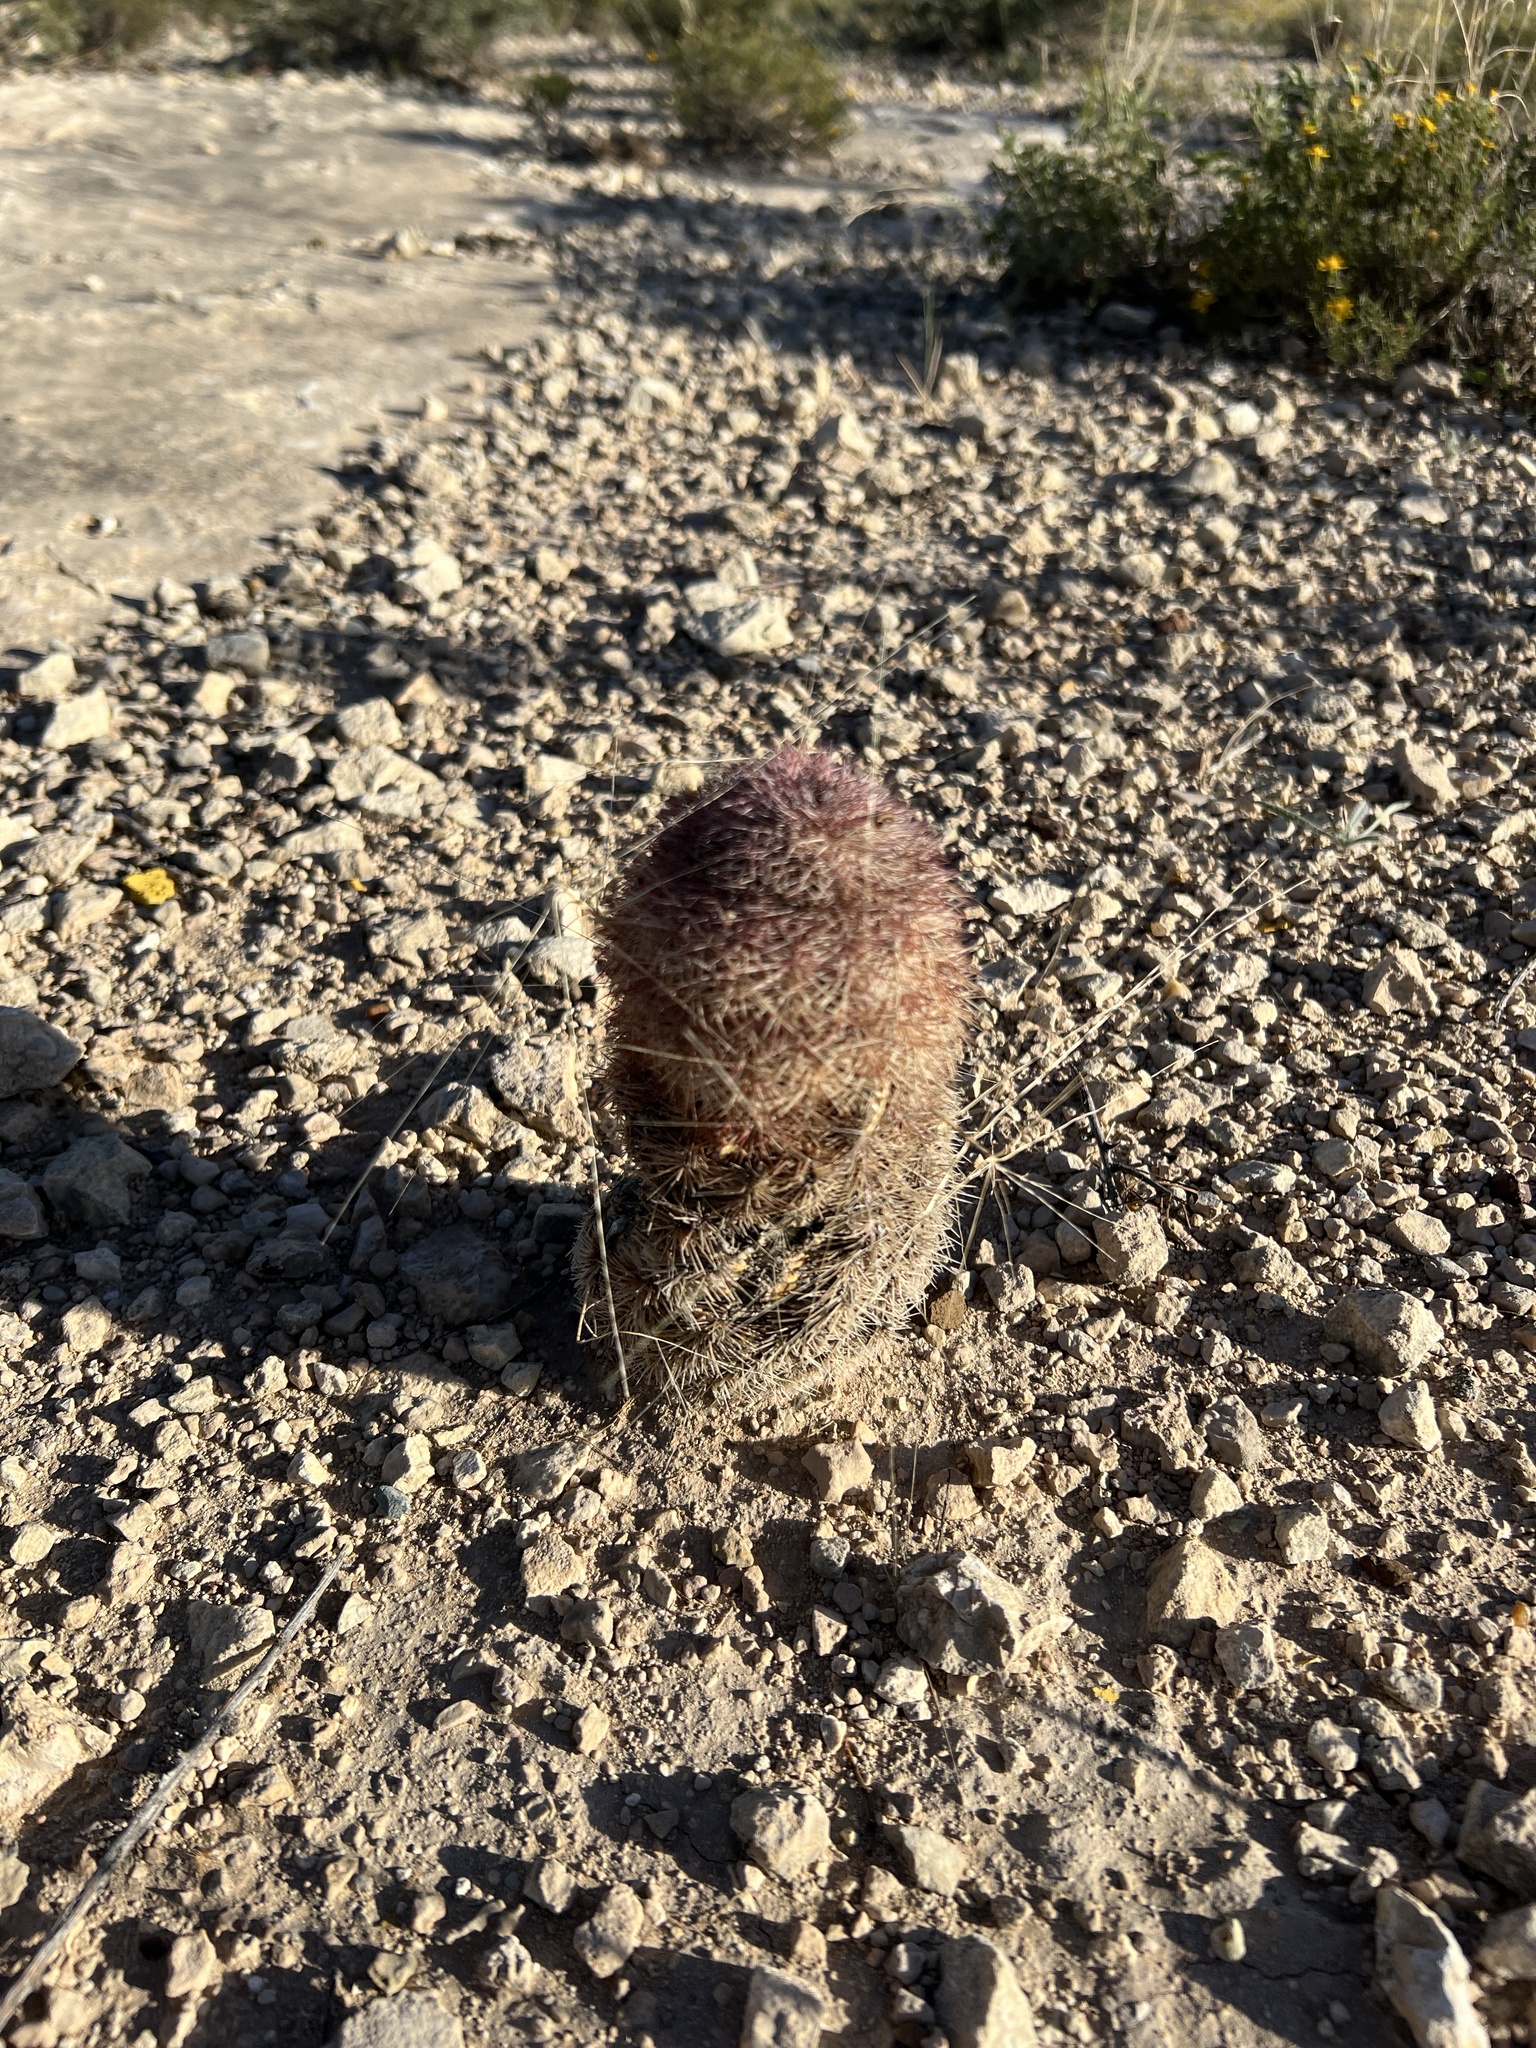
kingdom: Plantae
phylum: Tracheophyta
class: Magnoliopsida
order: Caryophyllales
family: Cactaceae
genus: Echinocereus
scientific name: Echinocereus dasyacanthus
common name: Spiny hedgehog cactus
